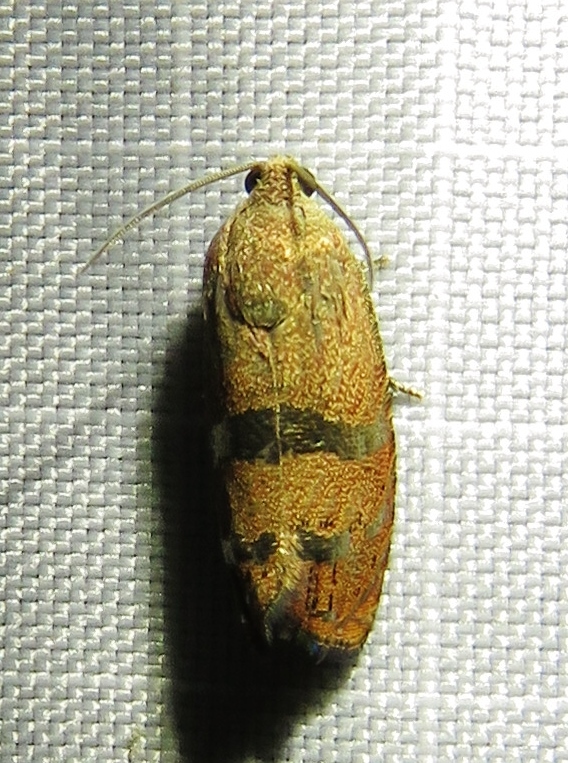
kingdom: Animalia
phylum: Arthropoda
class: Insecta
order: Lepidoptera
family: Tortricidae
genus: Cydia
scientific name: Cydia latiferreana
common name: Filbertworm moth
